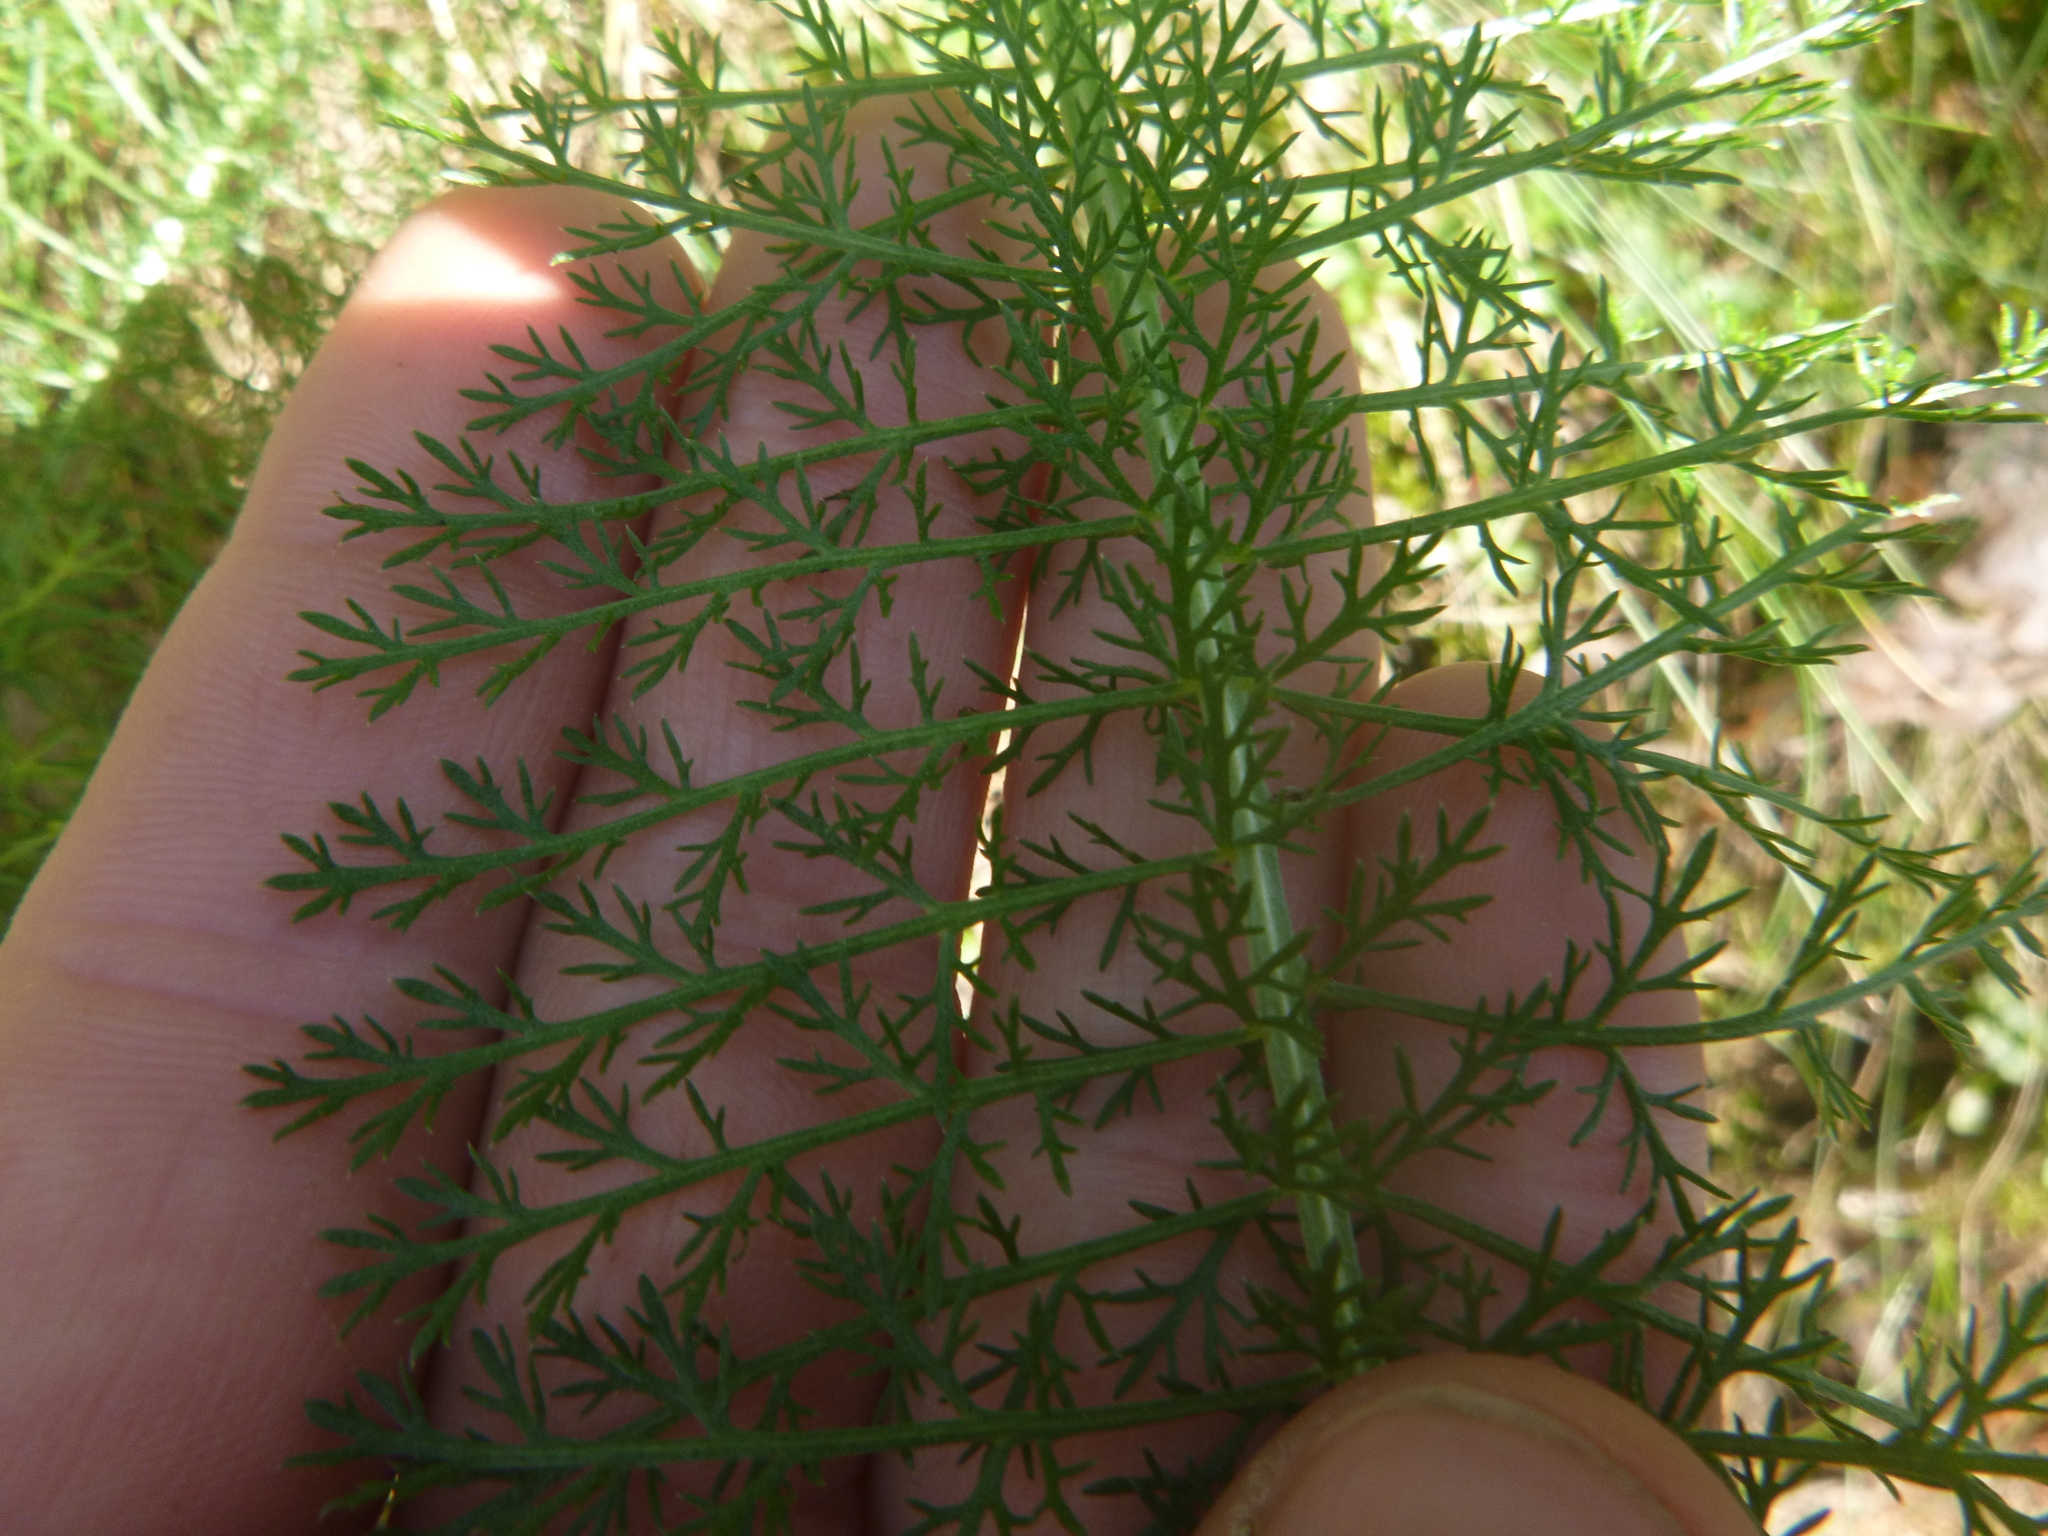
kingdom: Plantae
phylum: Tracheophyta
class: Magnoliopsida
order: Asterales
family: Asteraceae
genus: Achillea
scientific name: Achillea millefolium
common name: Yarrow
